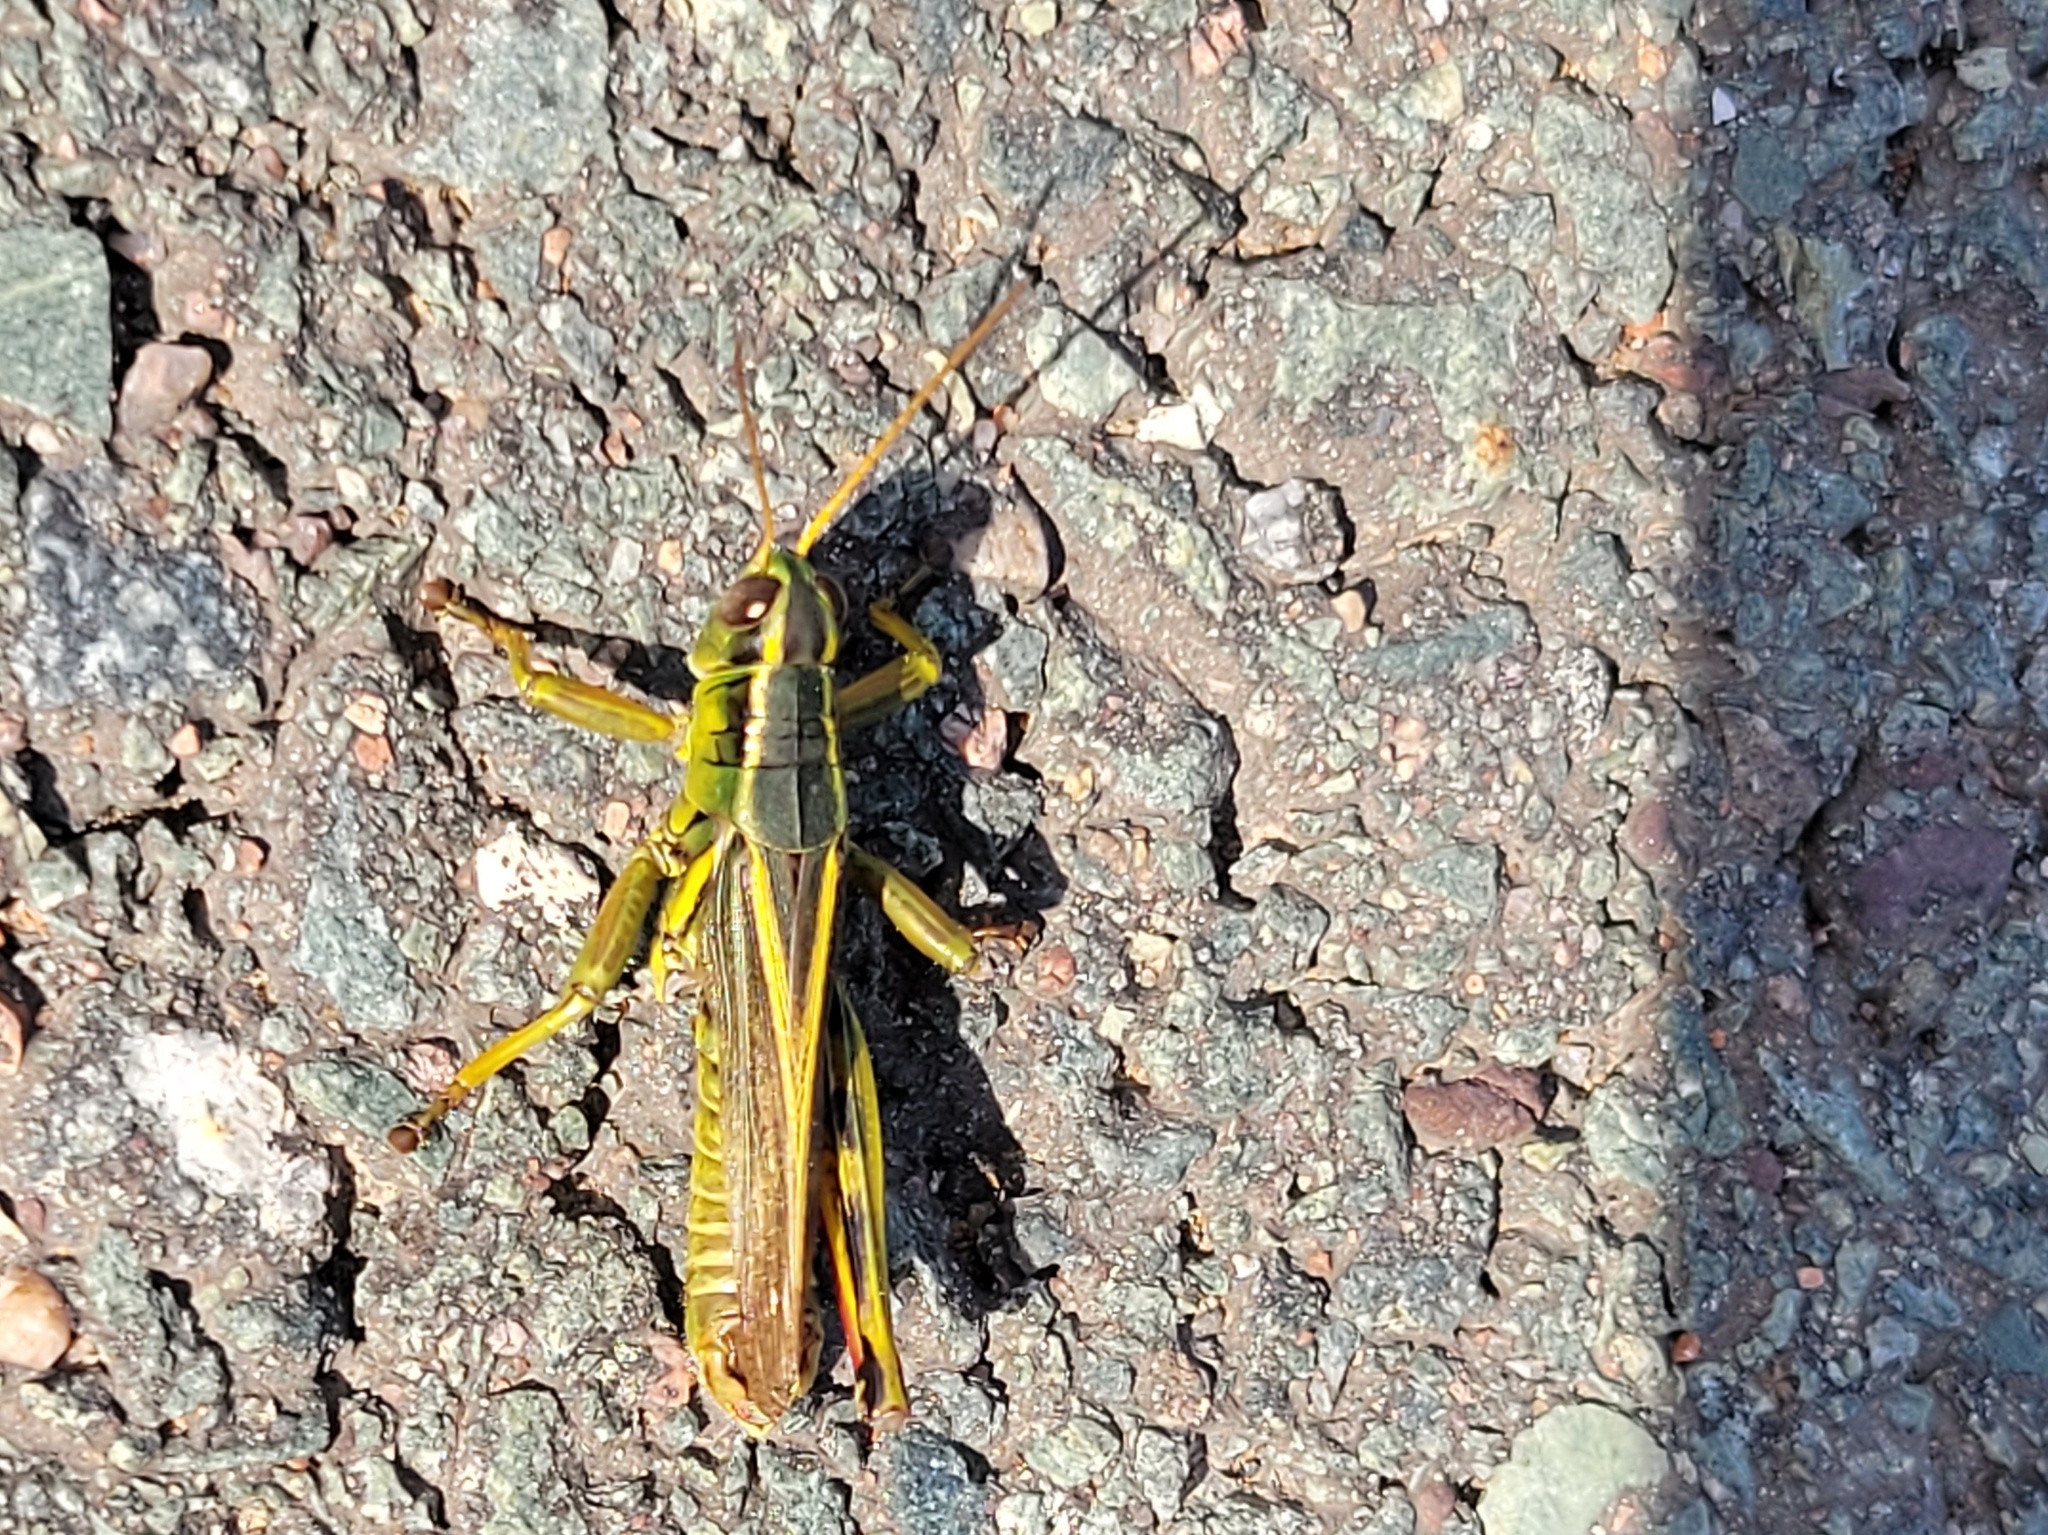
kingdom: Animalia
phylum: Arthropoda
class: Insecta
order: Orthoptera
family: Acrididae
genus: Melanoplus
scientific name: Melanoplus bivittatus
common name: Two-striped grasshopper
